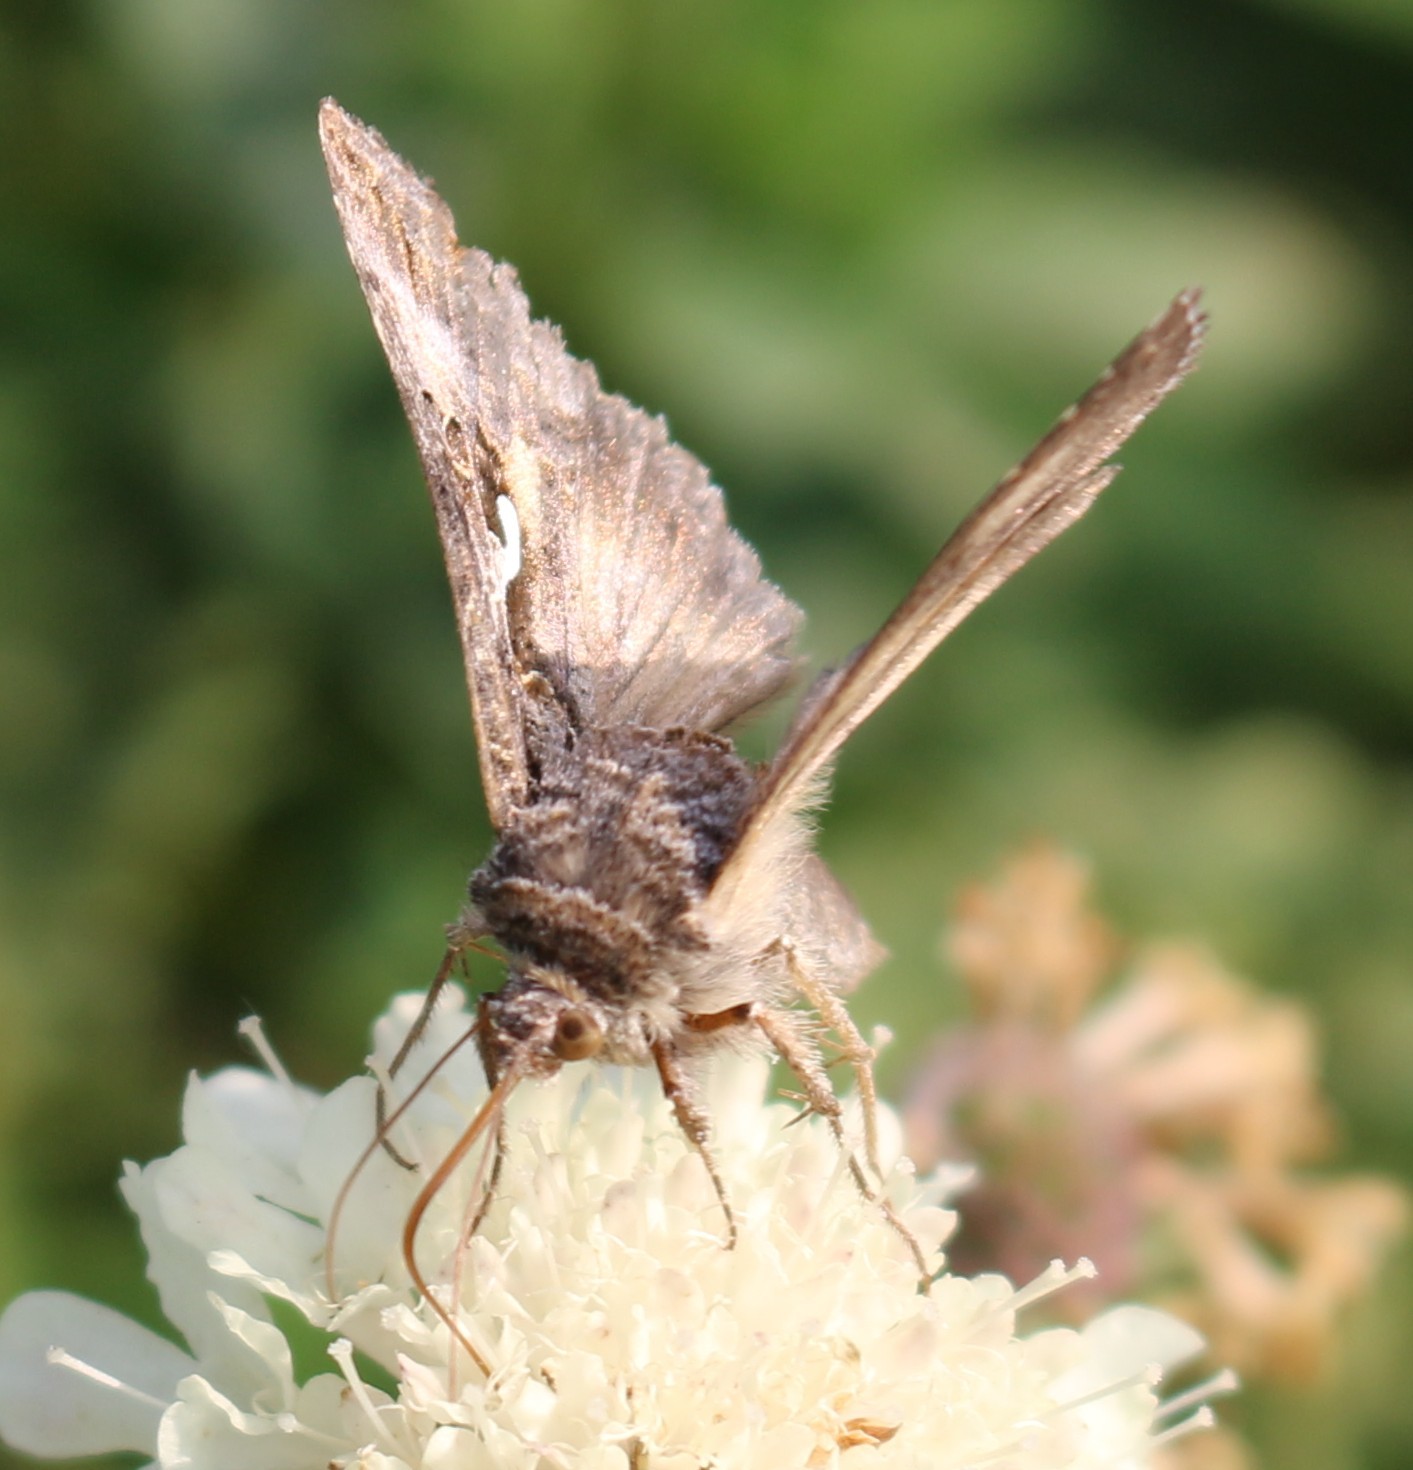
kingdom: Animalia
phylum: Arthropoda
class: Insecta
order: Lepidoptera
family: Noctuidae
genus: Autographa
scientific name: Autographa gamma
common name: Silver y
